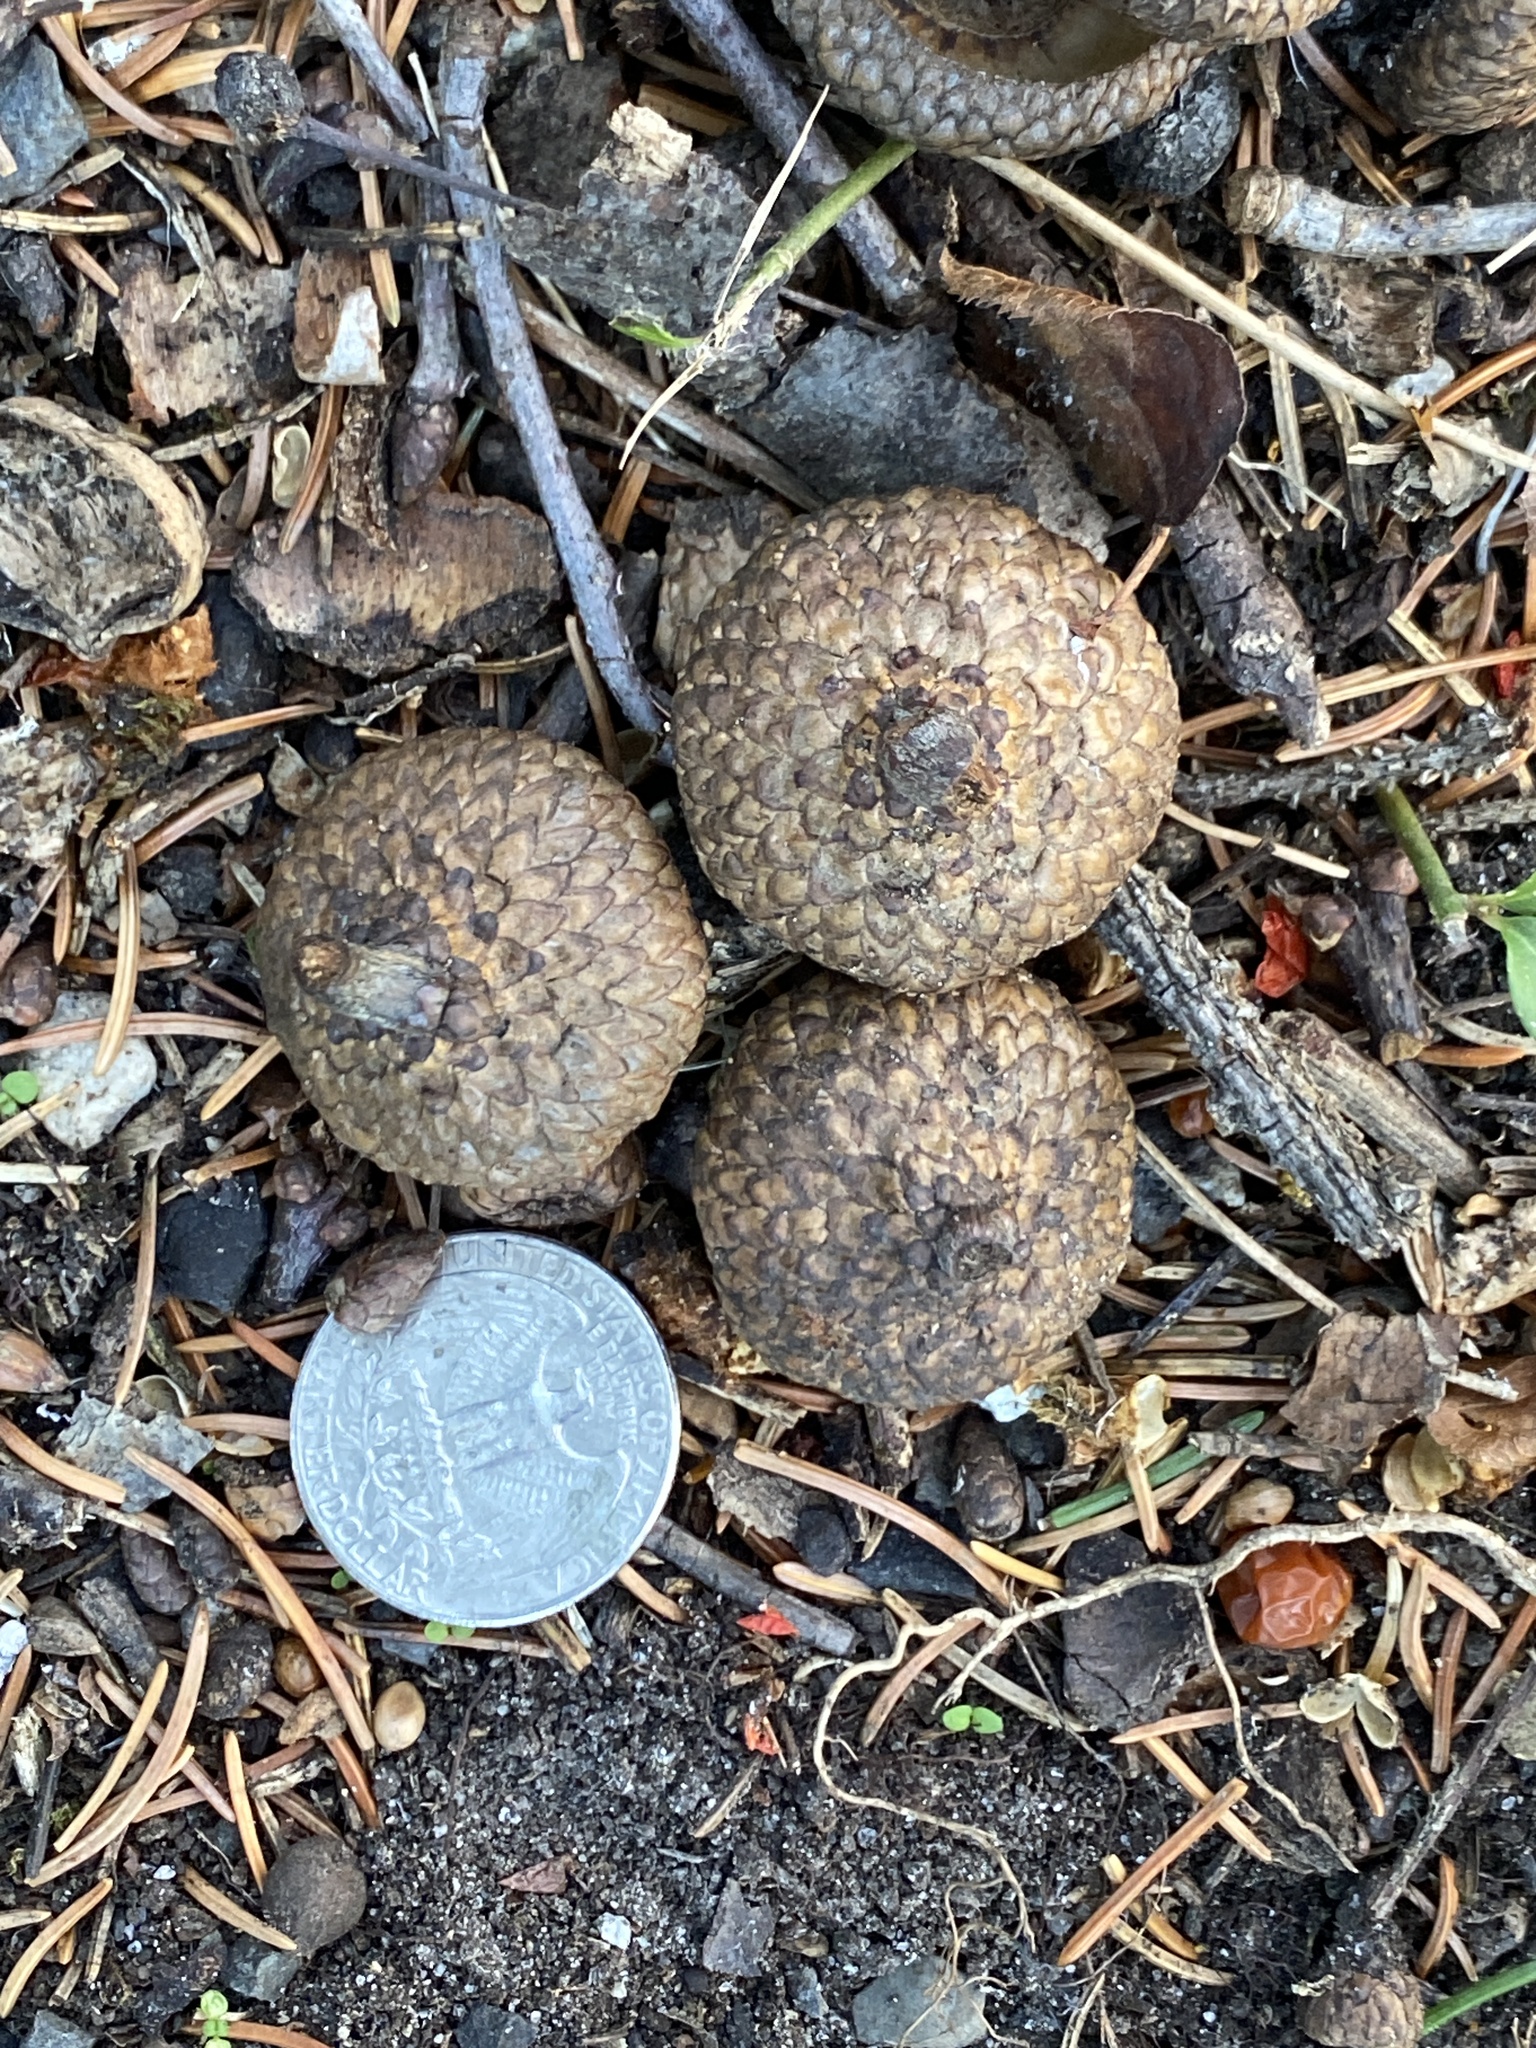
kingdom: Plantae
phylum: Tracheophyta
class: Magnoliopsida
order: Fagales
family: Fagaceae
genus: Quercus
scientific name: Quercus rubra
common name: Red oak
